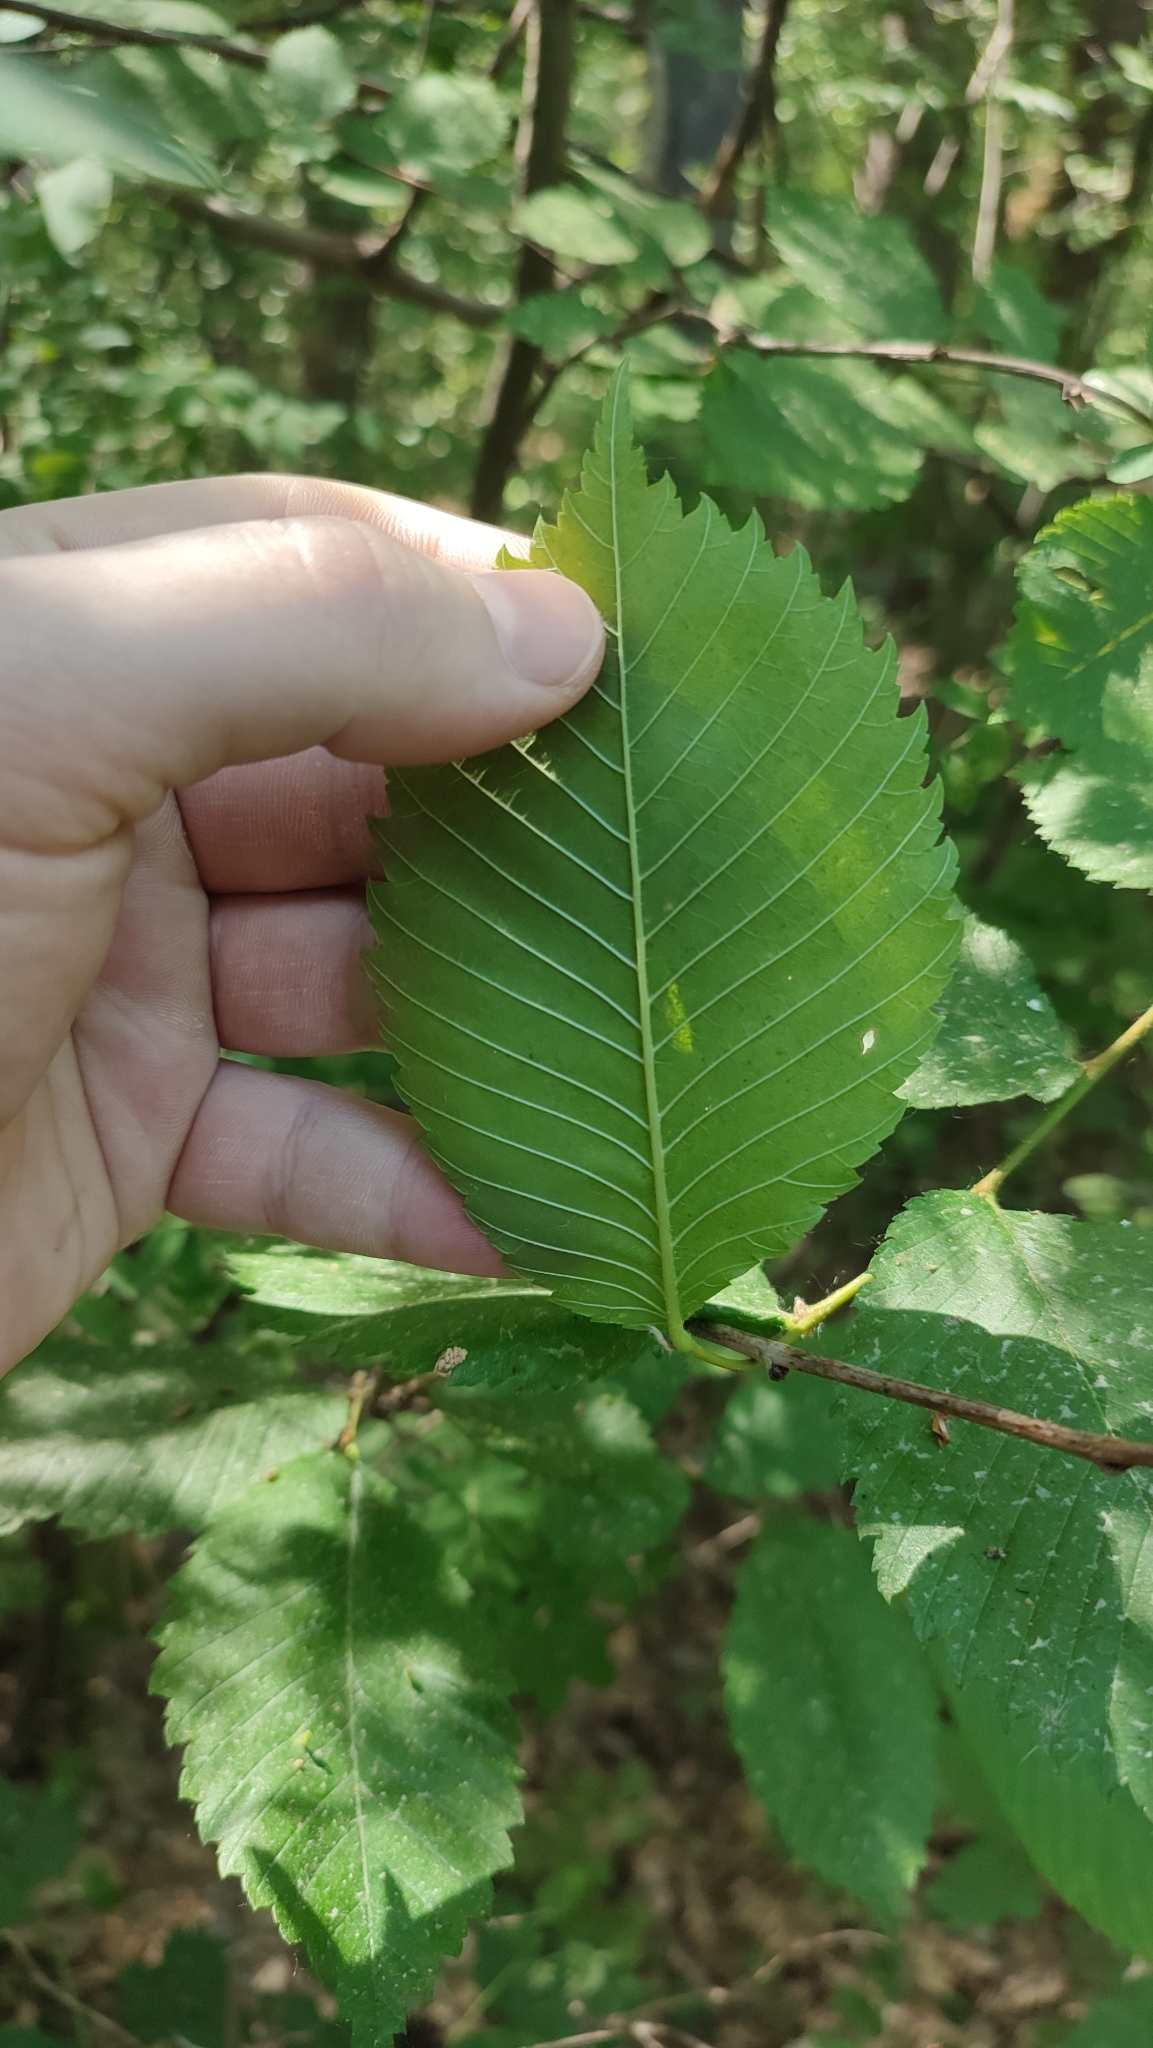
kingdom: Plantae
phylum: Tracheophyta
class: Magnoliopsida
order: Rosales
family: Ulmaceae
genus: Ulmus
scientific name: Ulmus laevis
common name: European white-elm
